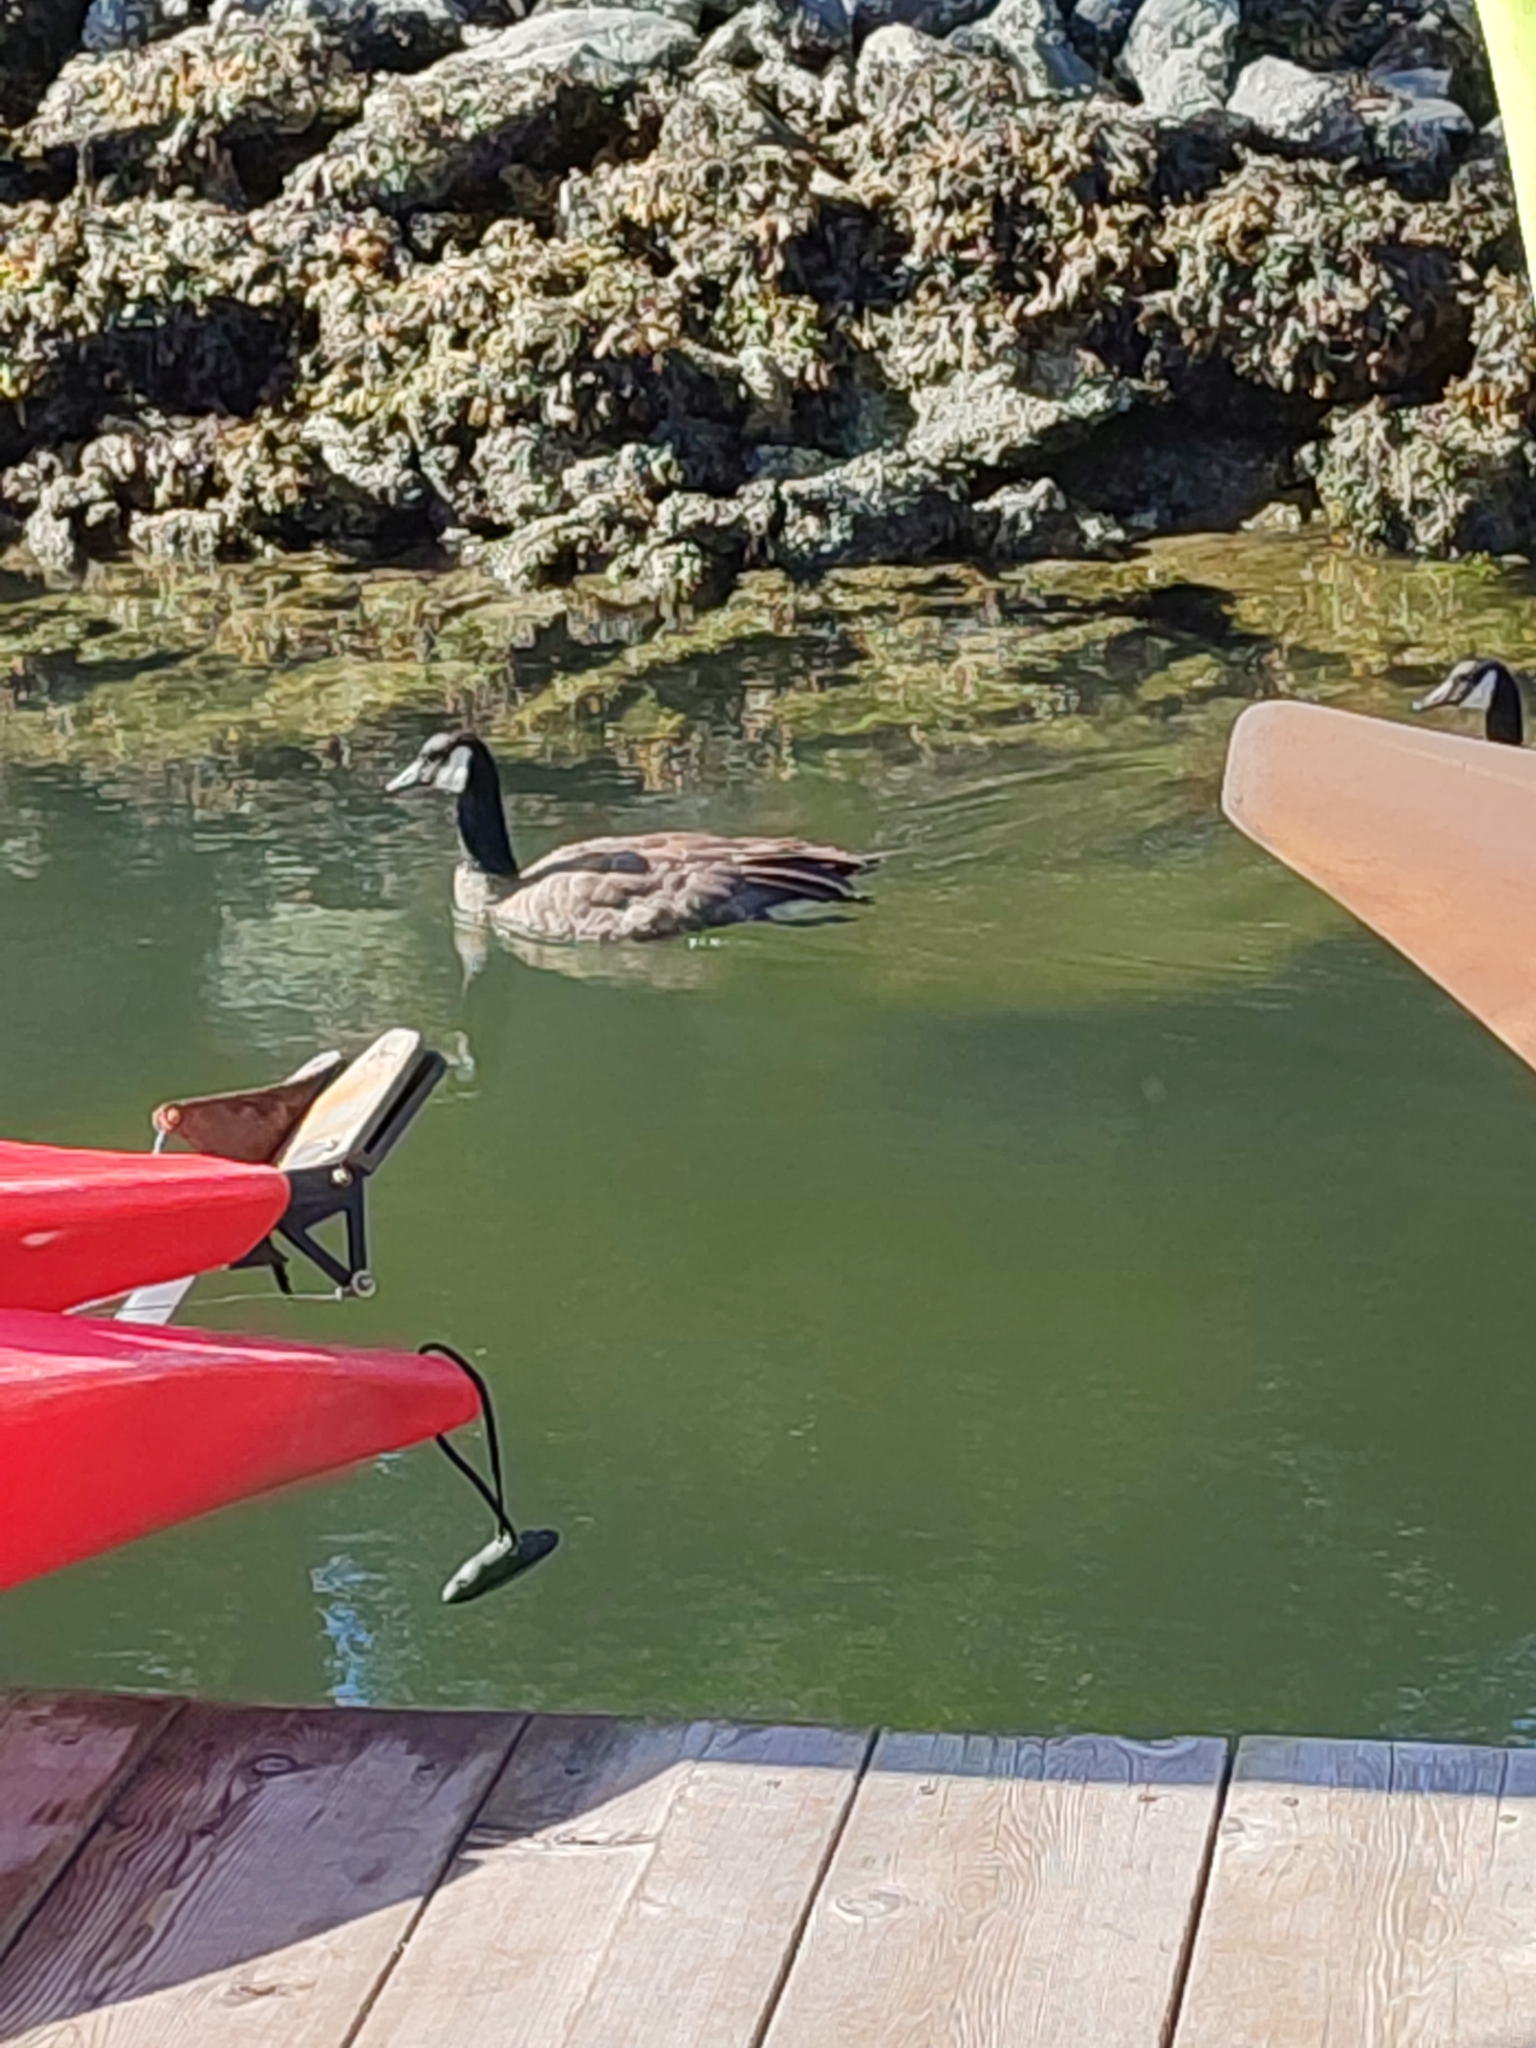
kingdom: Animalia
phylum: Chordata
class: Aves
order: Anseriformes
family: Anatidae
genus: Branta
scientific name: Branta canadensis
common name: Canada goose
